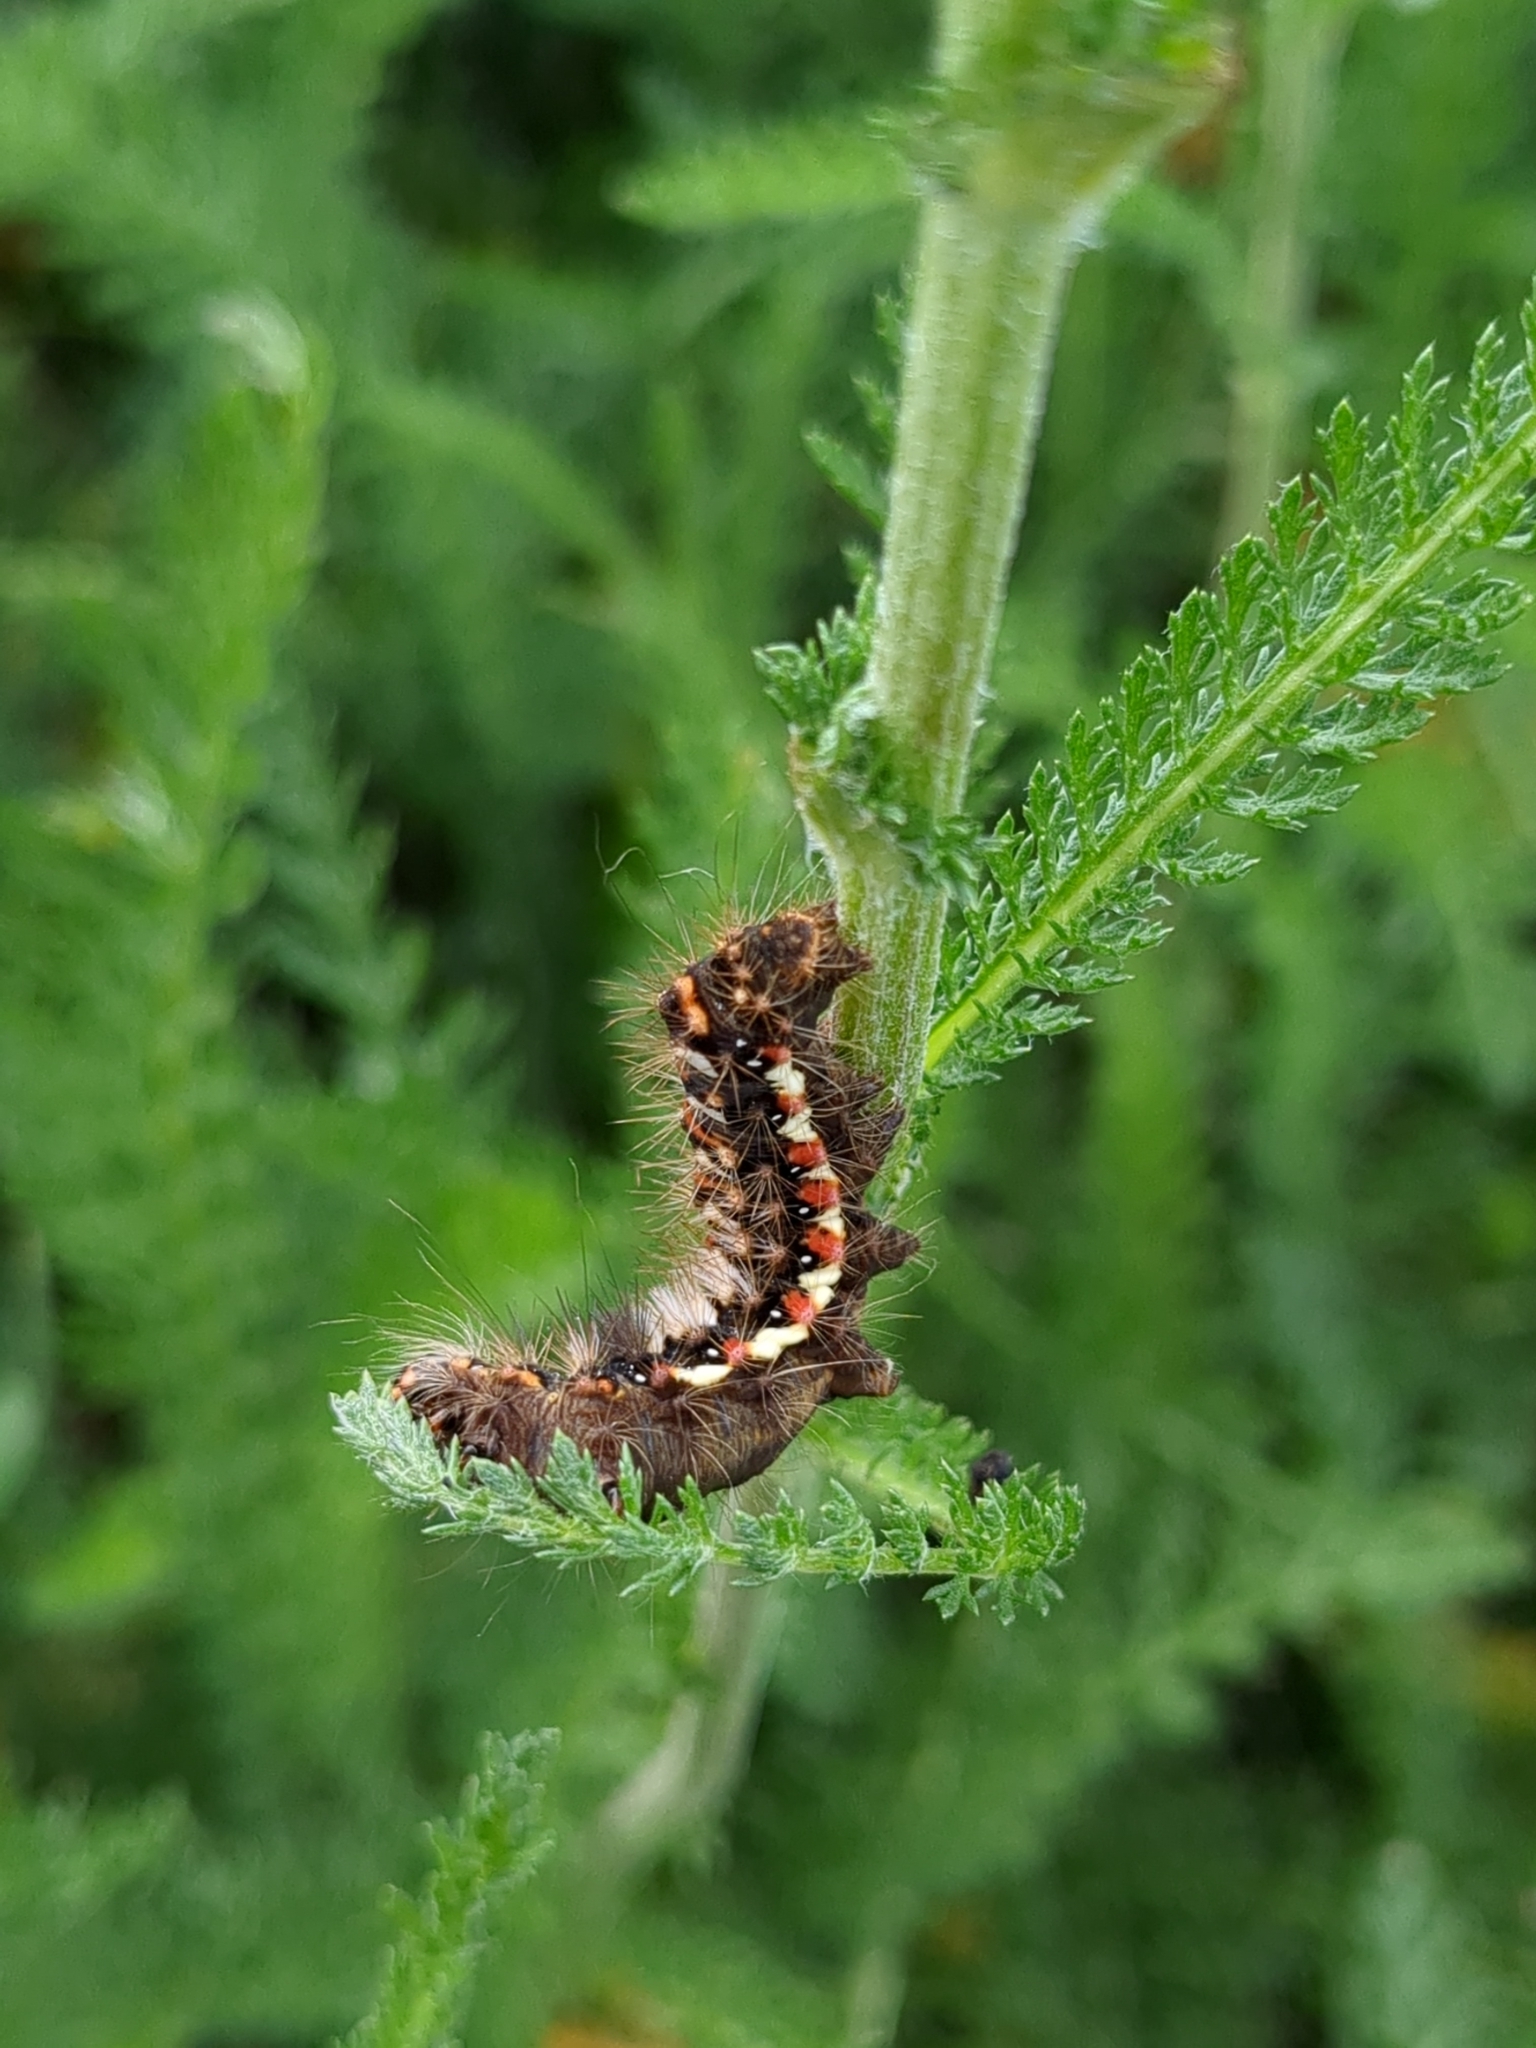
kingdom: Animalia
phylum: Arthropoda
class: Insecta
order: Lepidoptera
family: Noctuidae
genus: Acronicta
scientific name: Acronicta rumicis
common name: Knot grass
